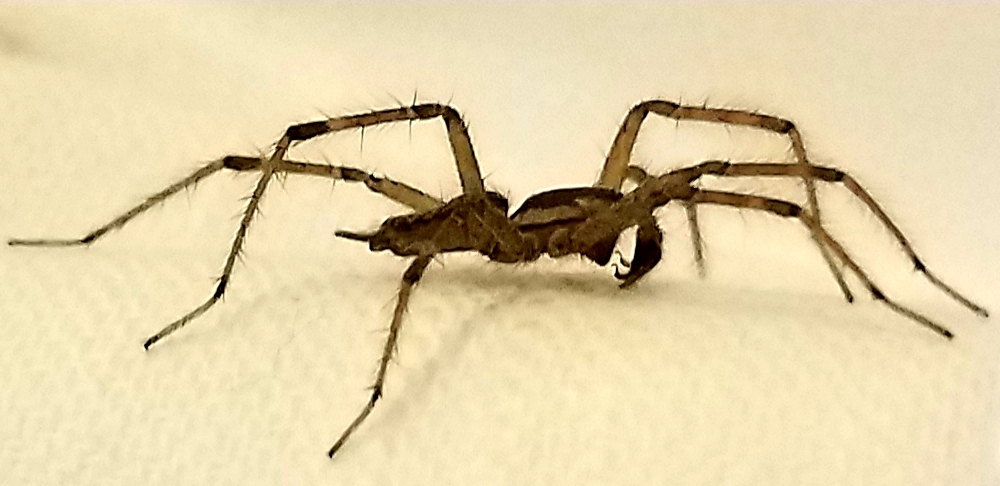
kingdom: Animalia
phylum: Arthropoda
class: Arachnida
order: Araneae
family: Agelenidae
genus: Agelenopsis
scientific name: Agelenopsis
